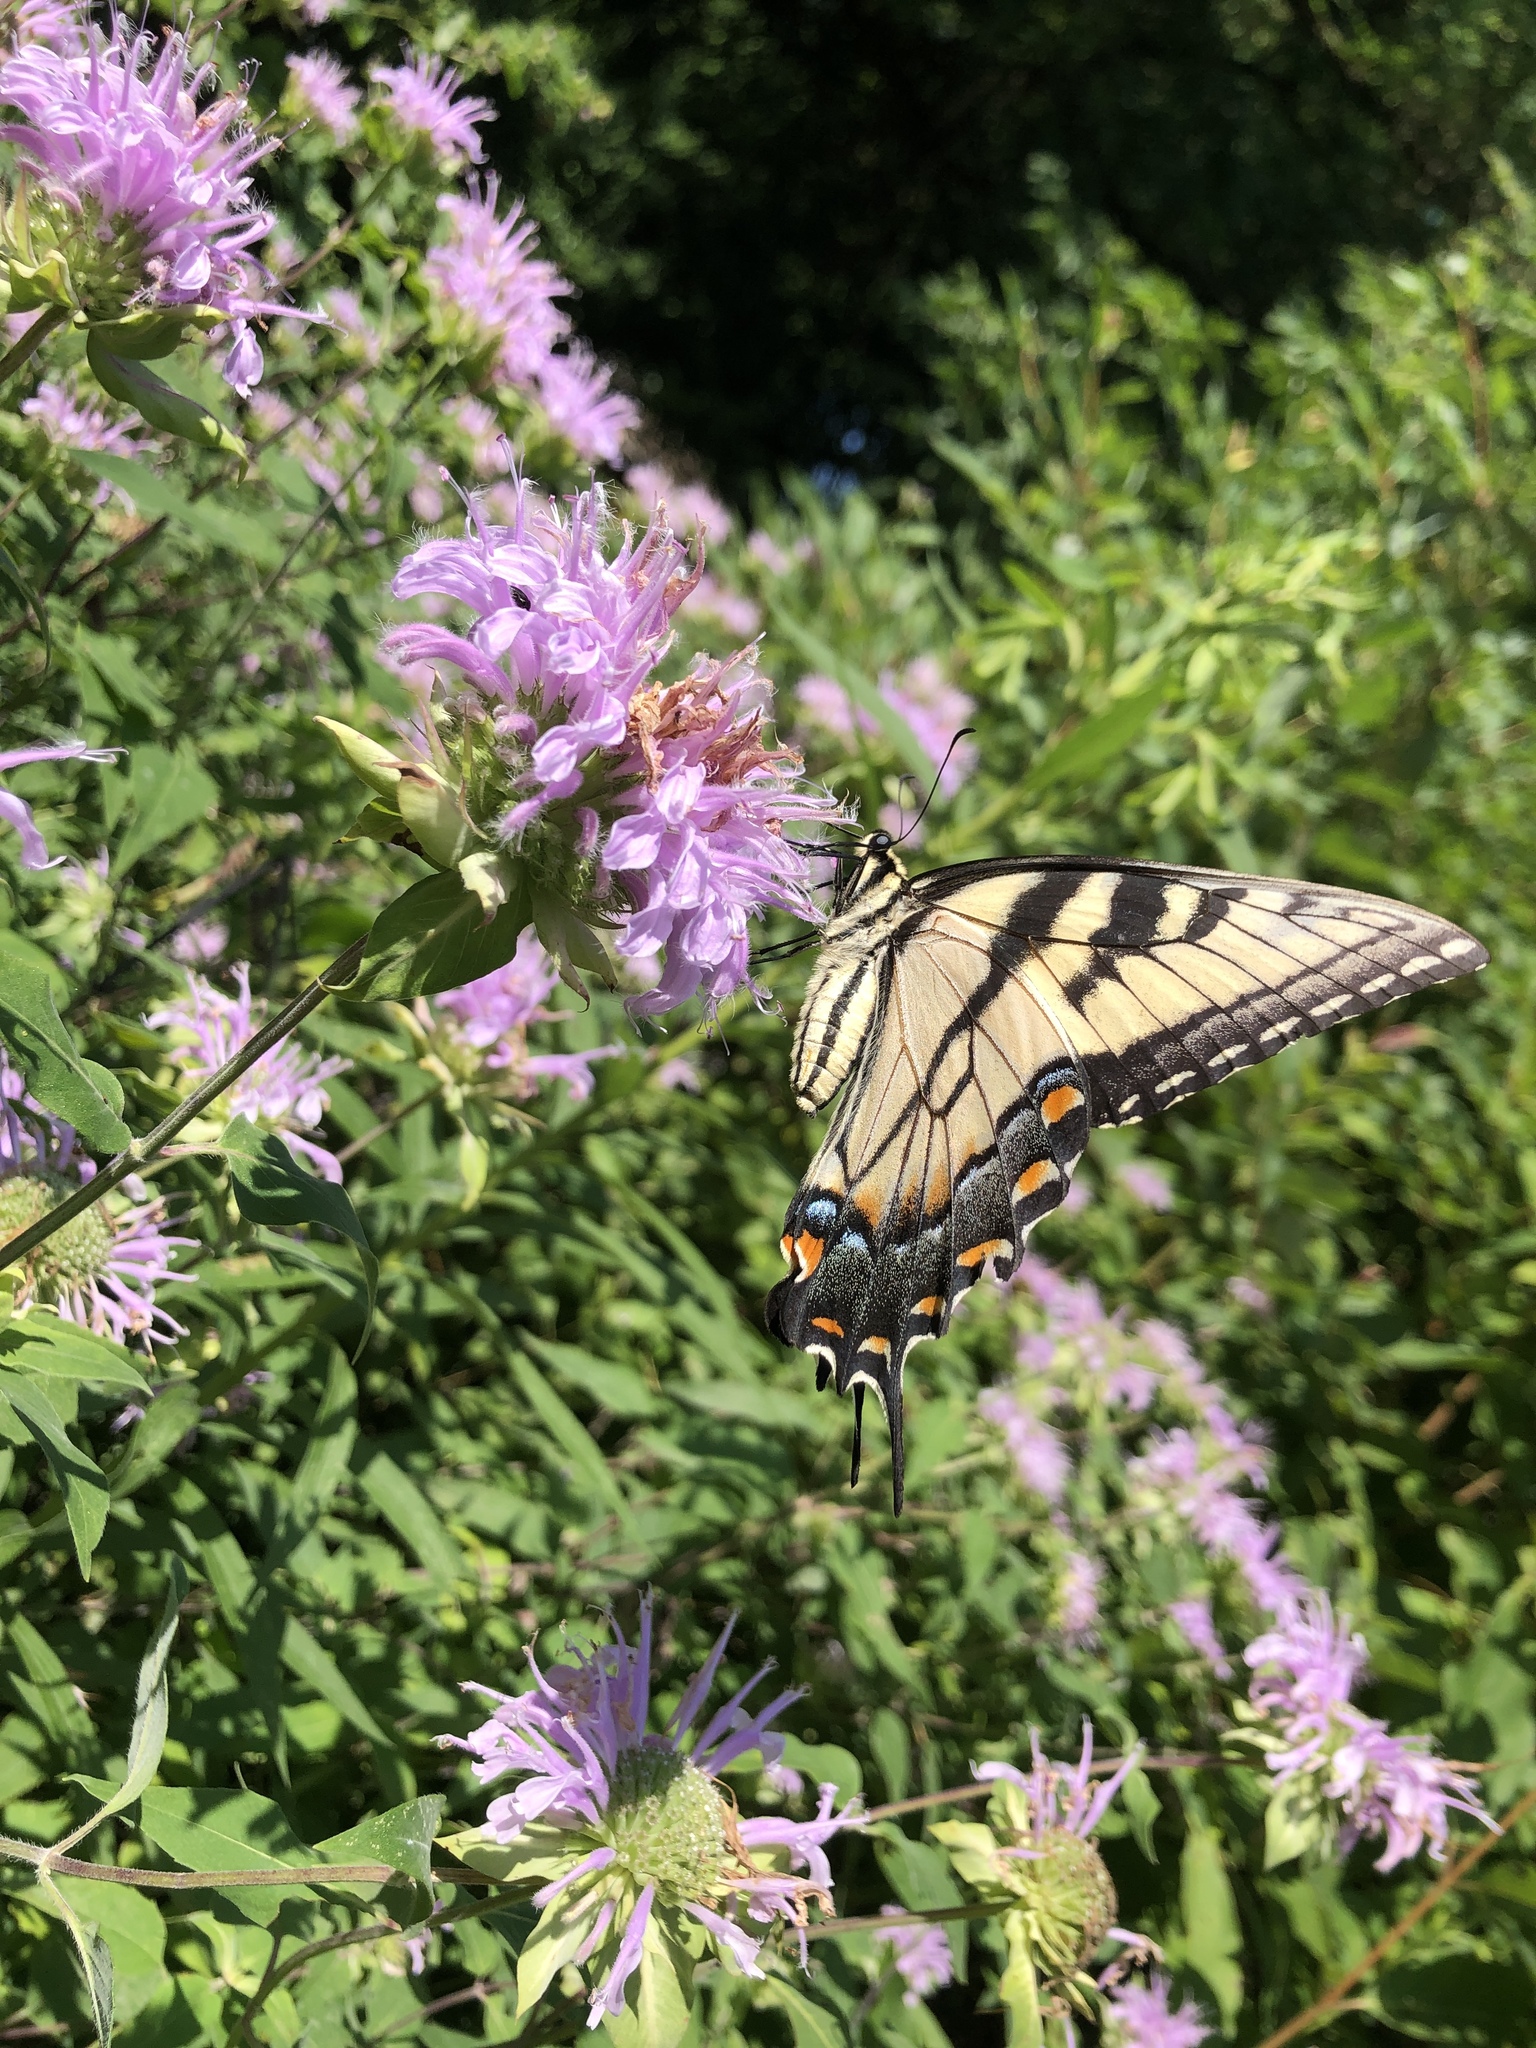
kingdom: Animalia
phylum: Arthropoda
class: Insecta
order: Lepidoptera
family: Papilionidae
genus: Papilio
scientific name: Papilio glaucus
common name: Tiger swallowtail
